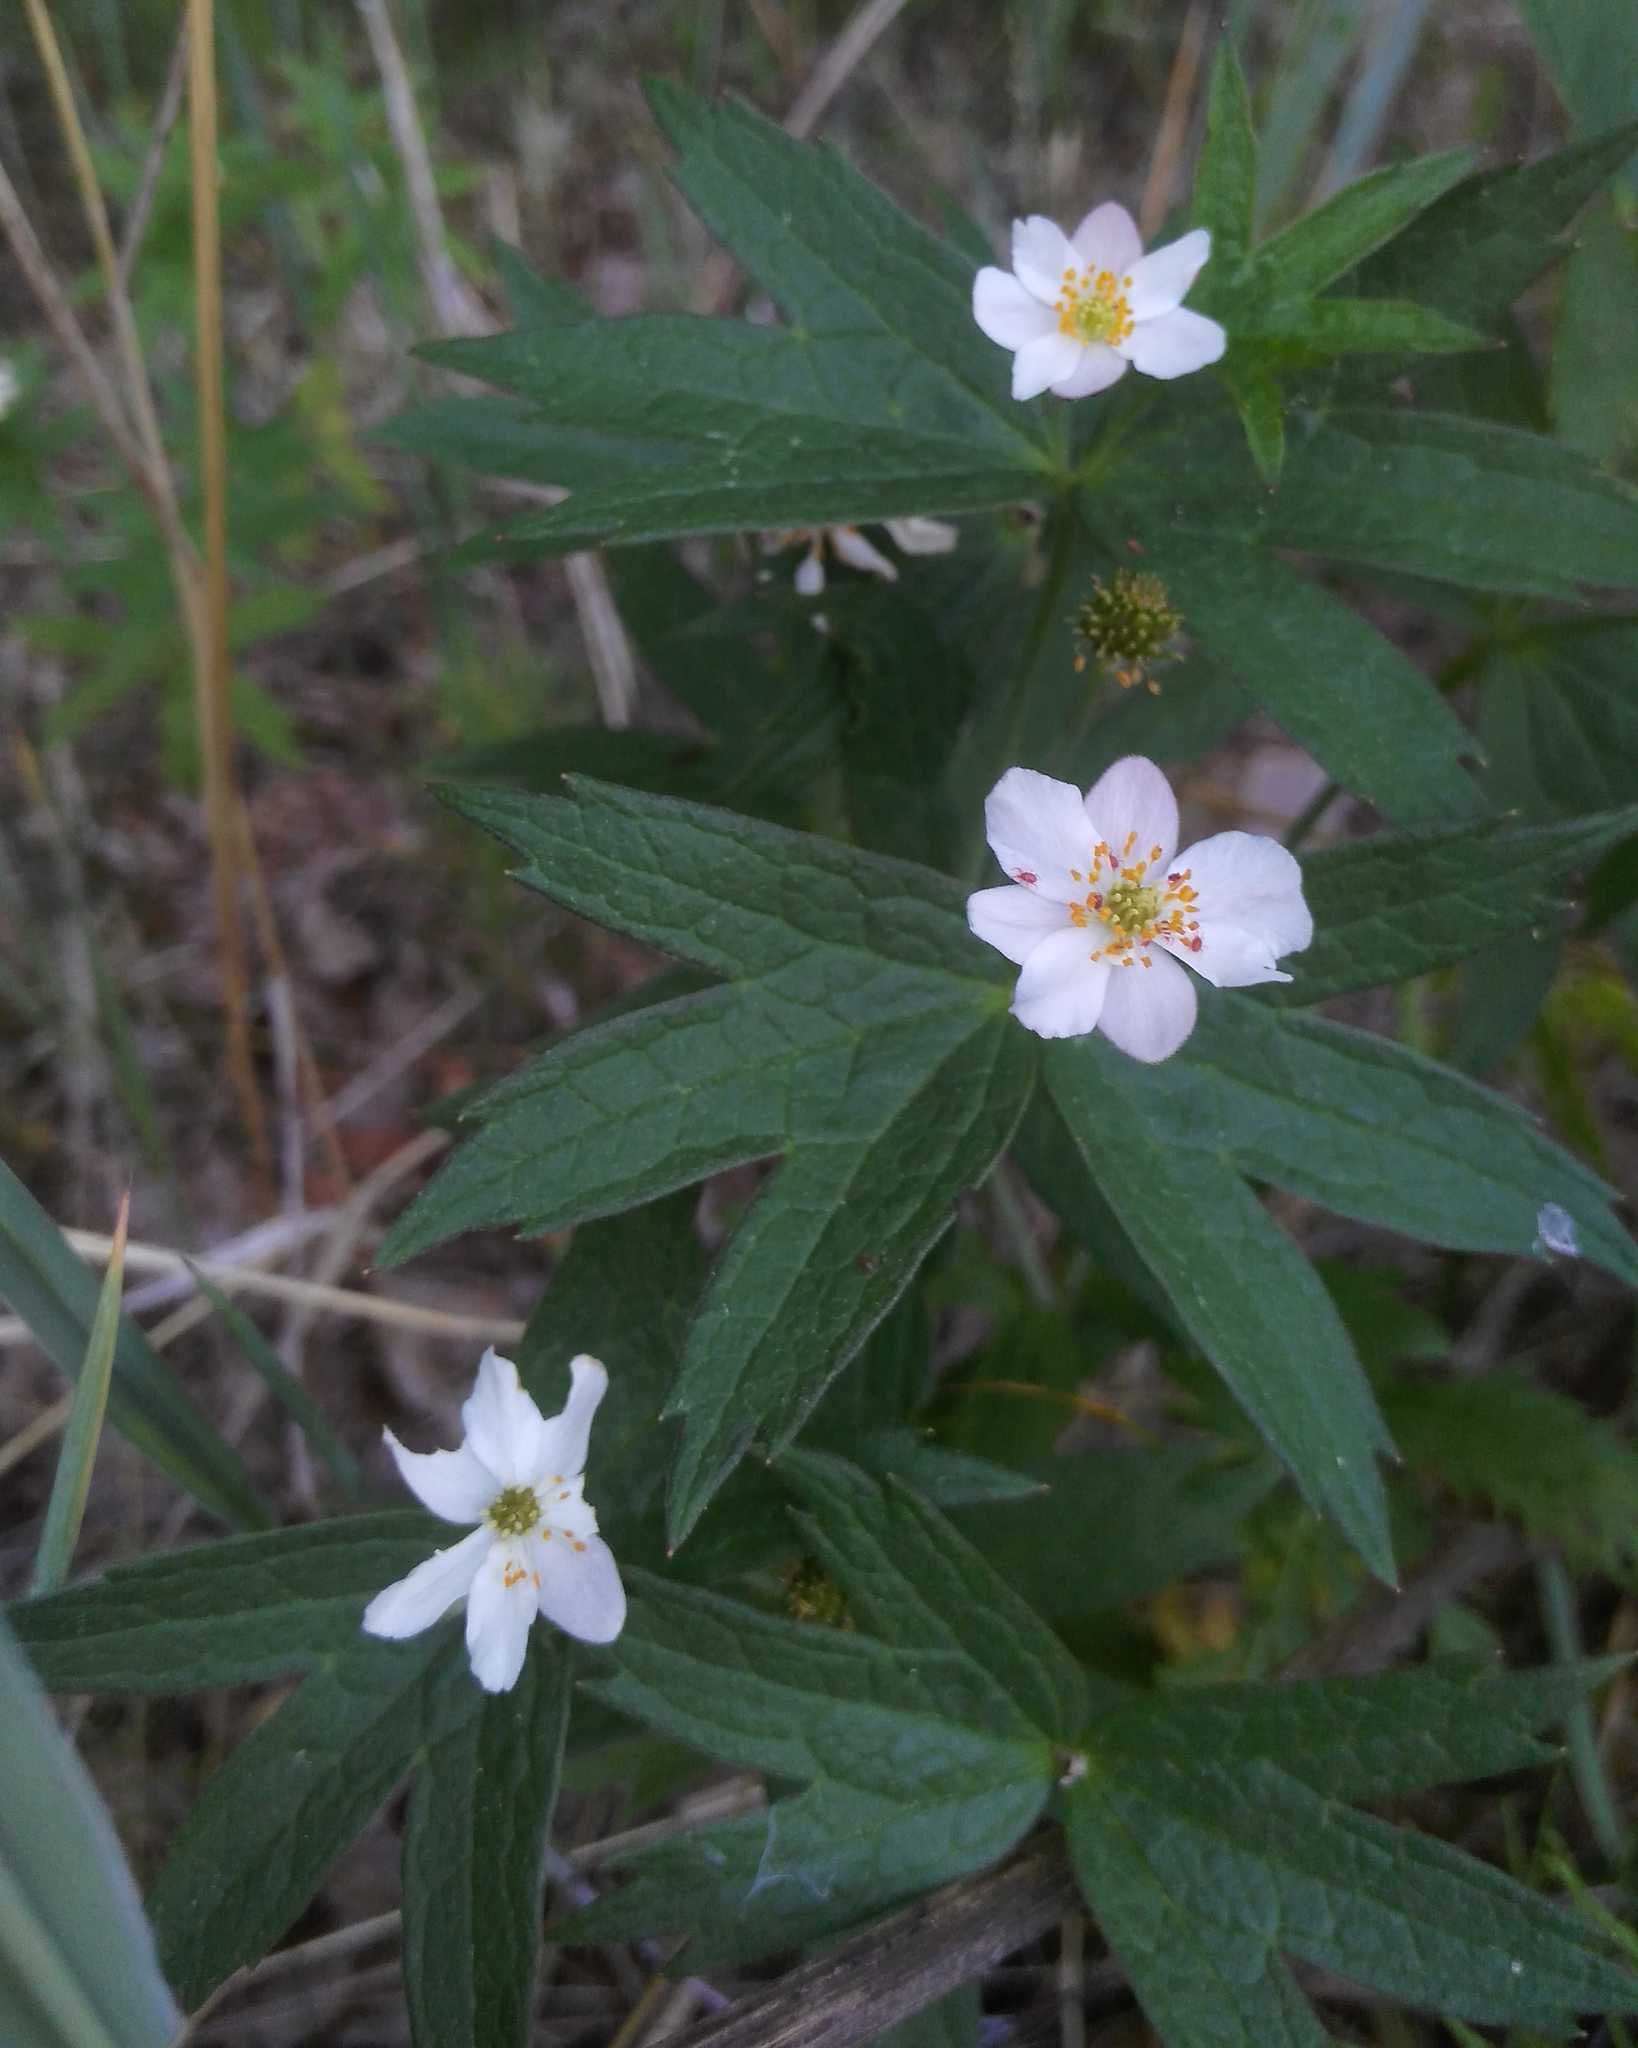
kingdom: Plantae
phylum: Tracheophyta
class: Magnoliopsida
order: Ranunculales
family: Ranunculaceae
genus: Anemonastrum
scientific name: Anemonastrum dichotomum
